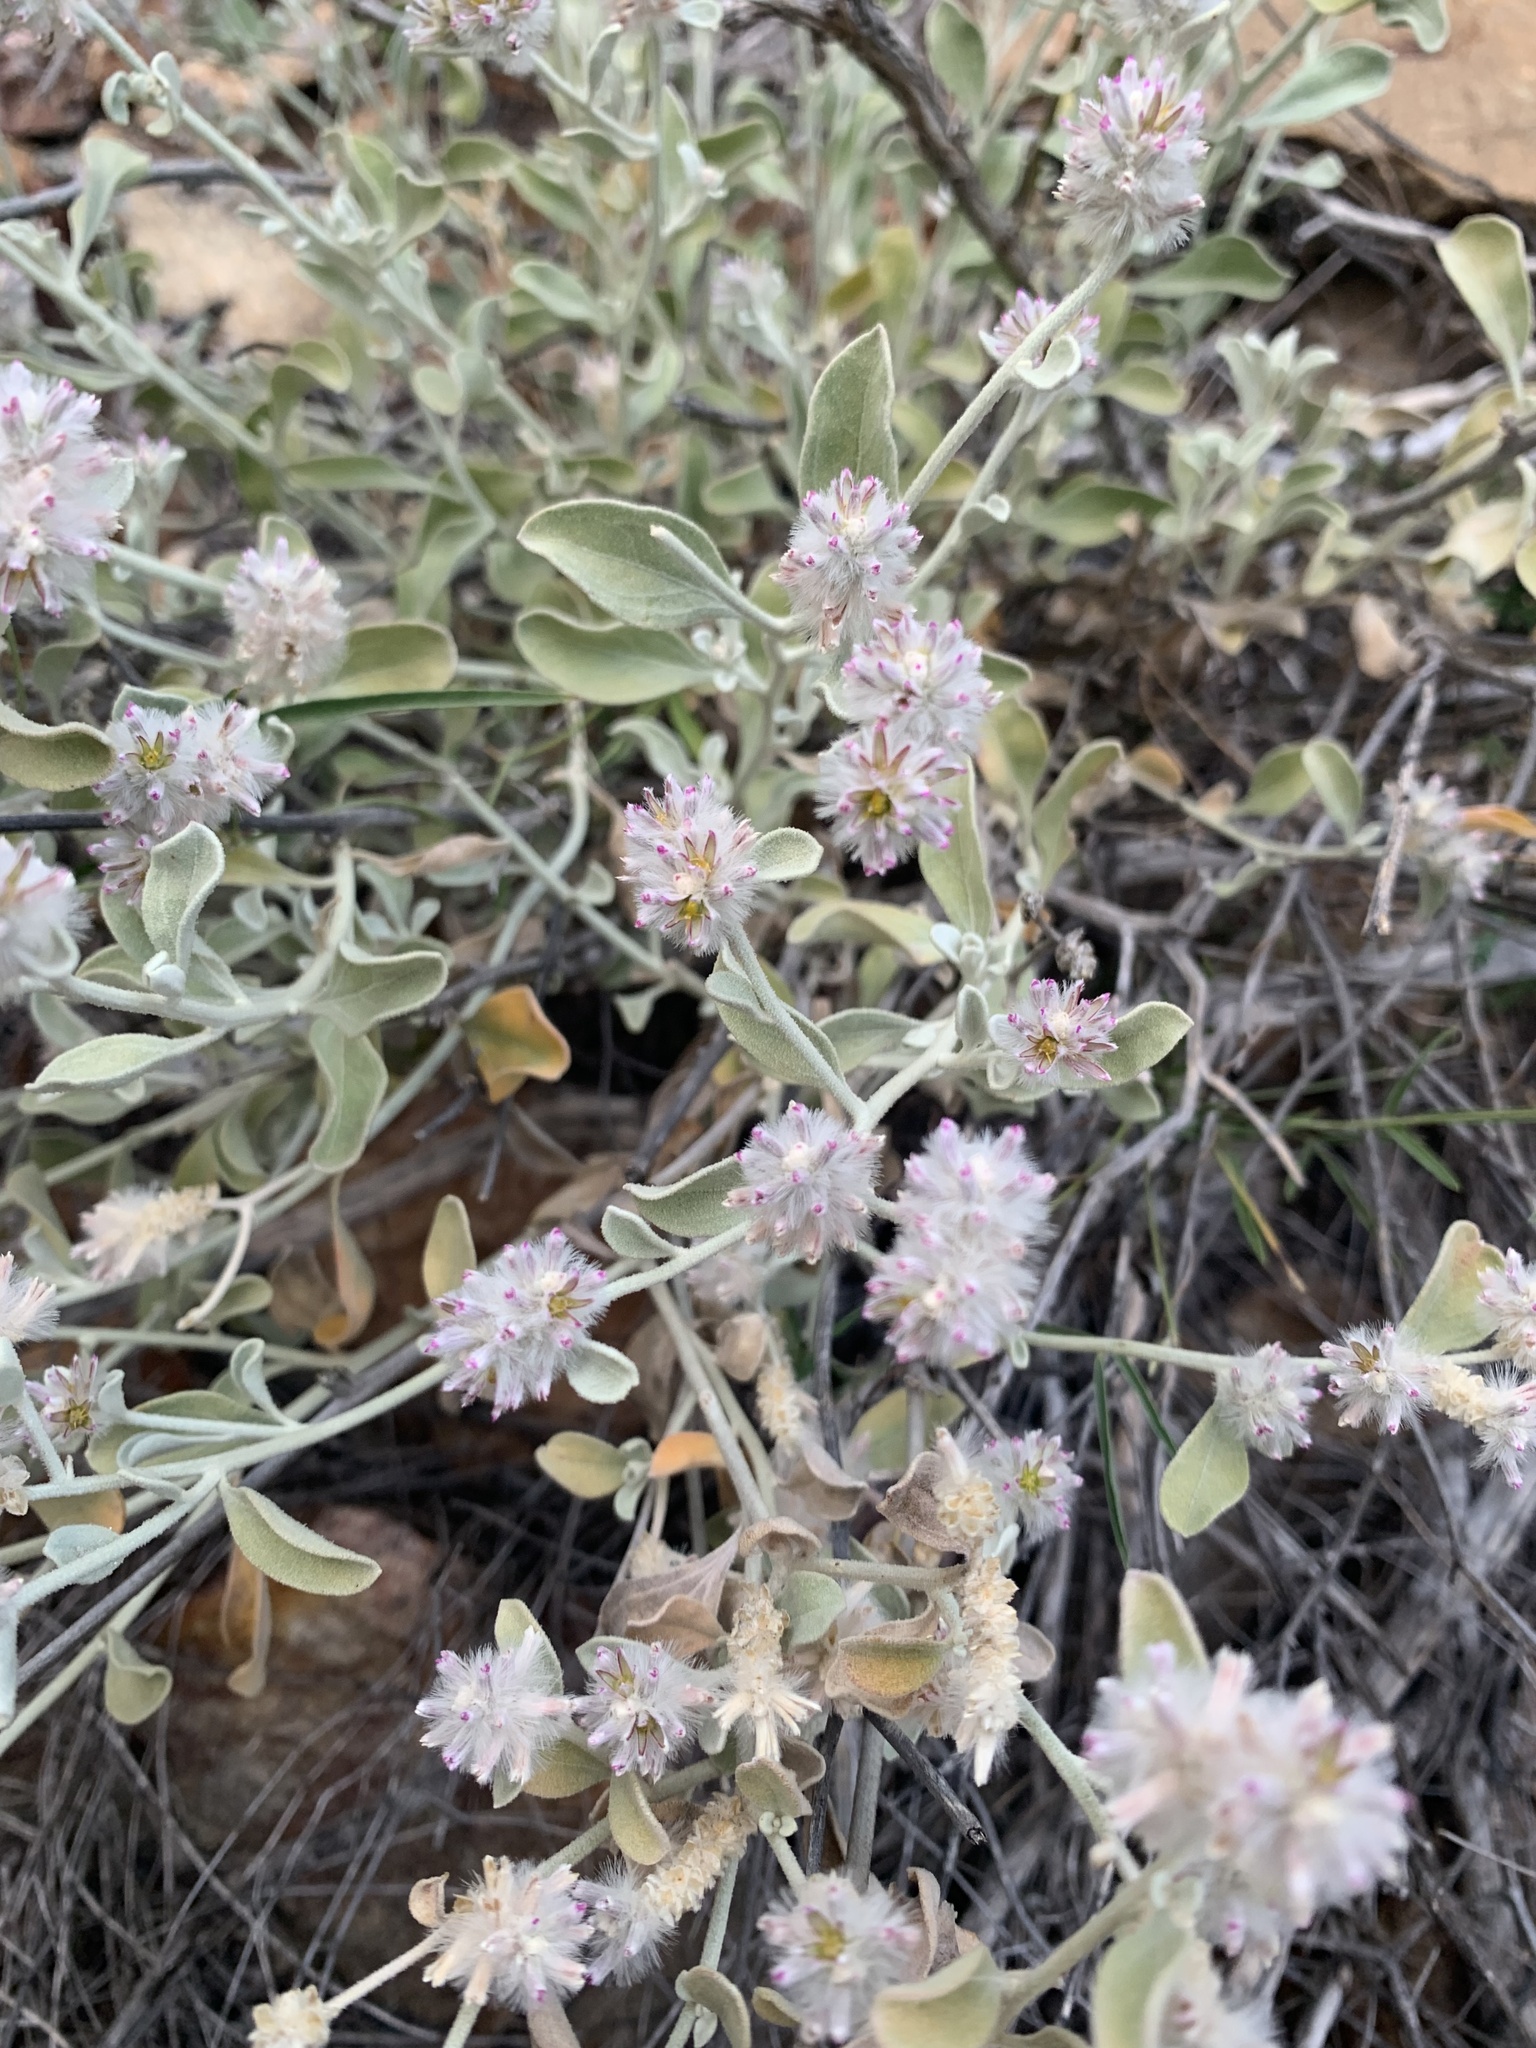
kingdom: Plantae
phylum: Tracheophyta
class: Magnoliopsida
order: Caryophyllales
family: Amaranthaceae
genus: Ptilotus
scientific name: Ptilotus obovatus
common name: Cottonbush
